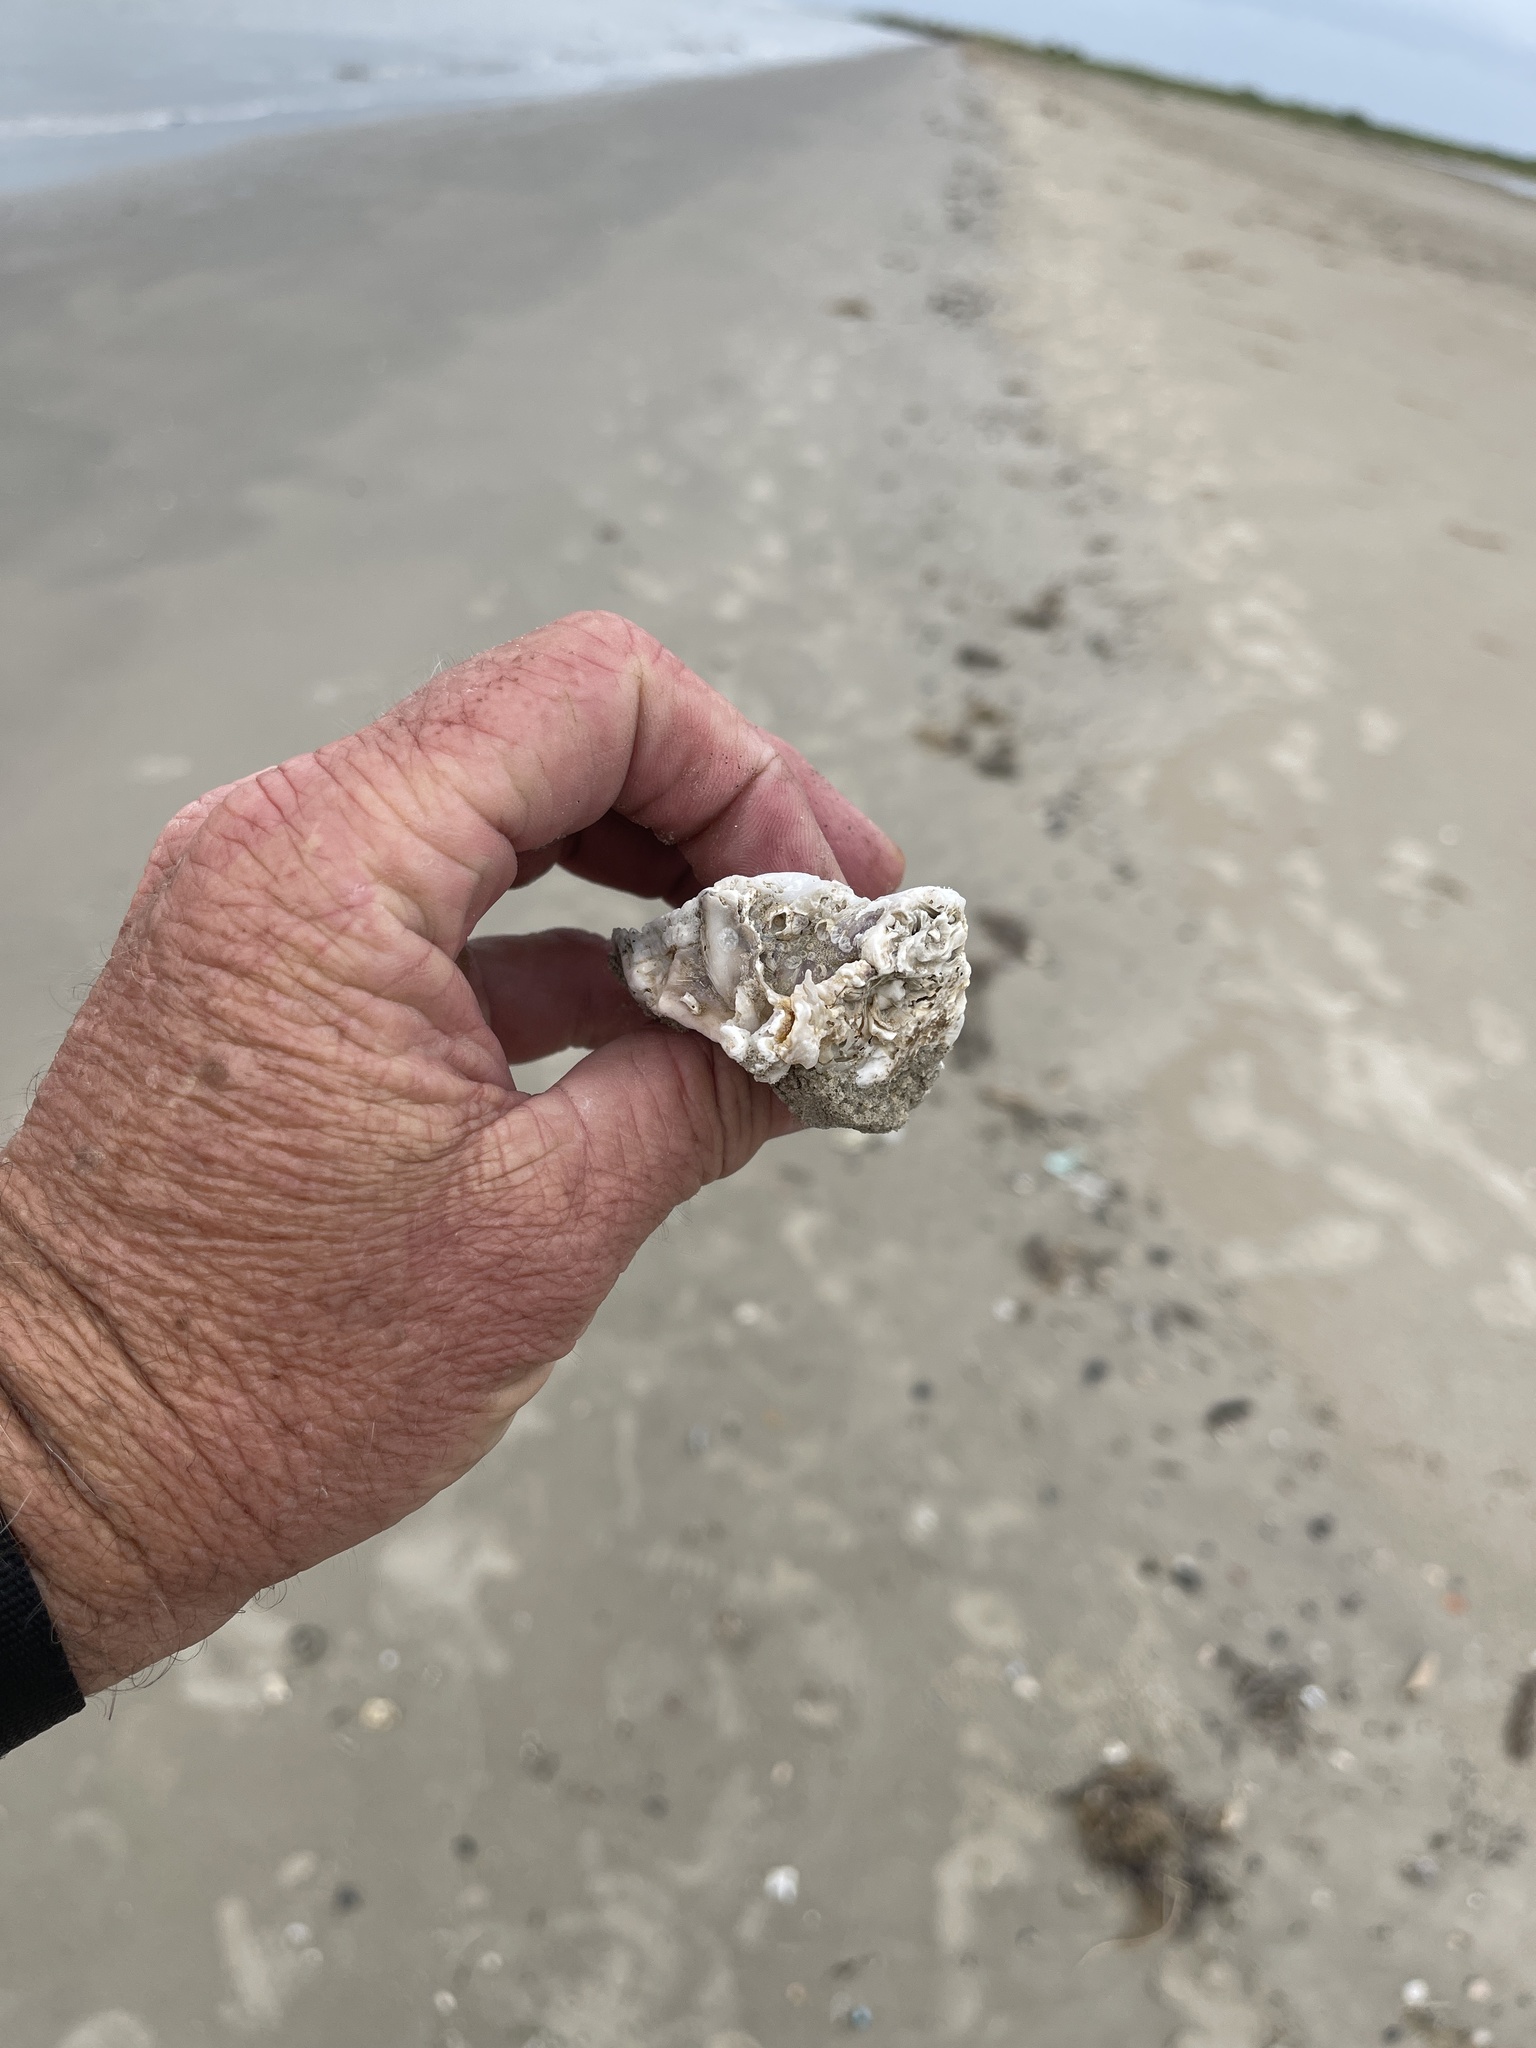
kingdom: Animalia
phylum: Mollusca
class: Bivalvia
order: Ostreida
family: Ostreidae
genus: Crassostrea
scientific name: Crassostrea virginica
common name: American oyster
